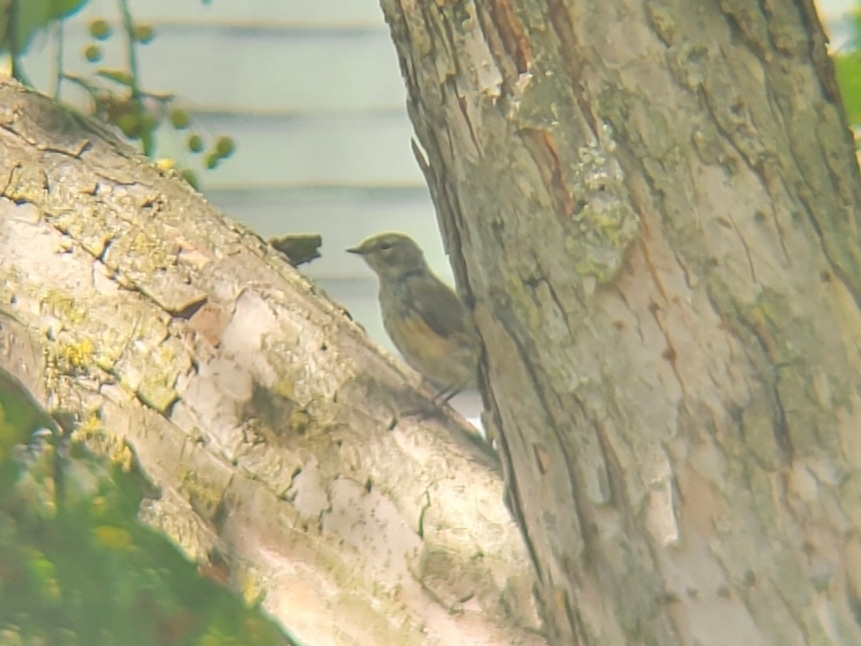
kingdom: Animalia
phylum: Chordata
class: Aves
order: Passeriformes
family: Parulidae
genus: Setophaga
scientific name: Setophaga coronata
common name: Myrtle warbler
